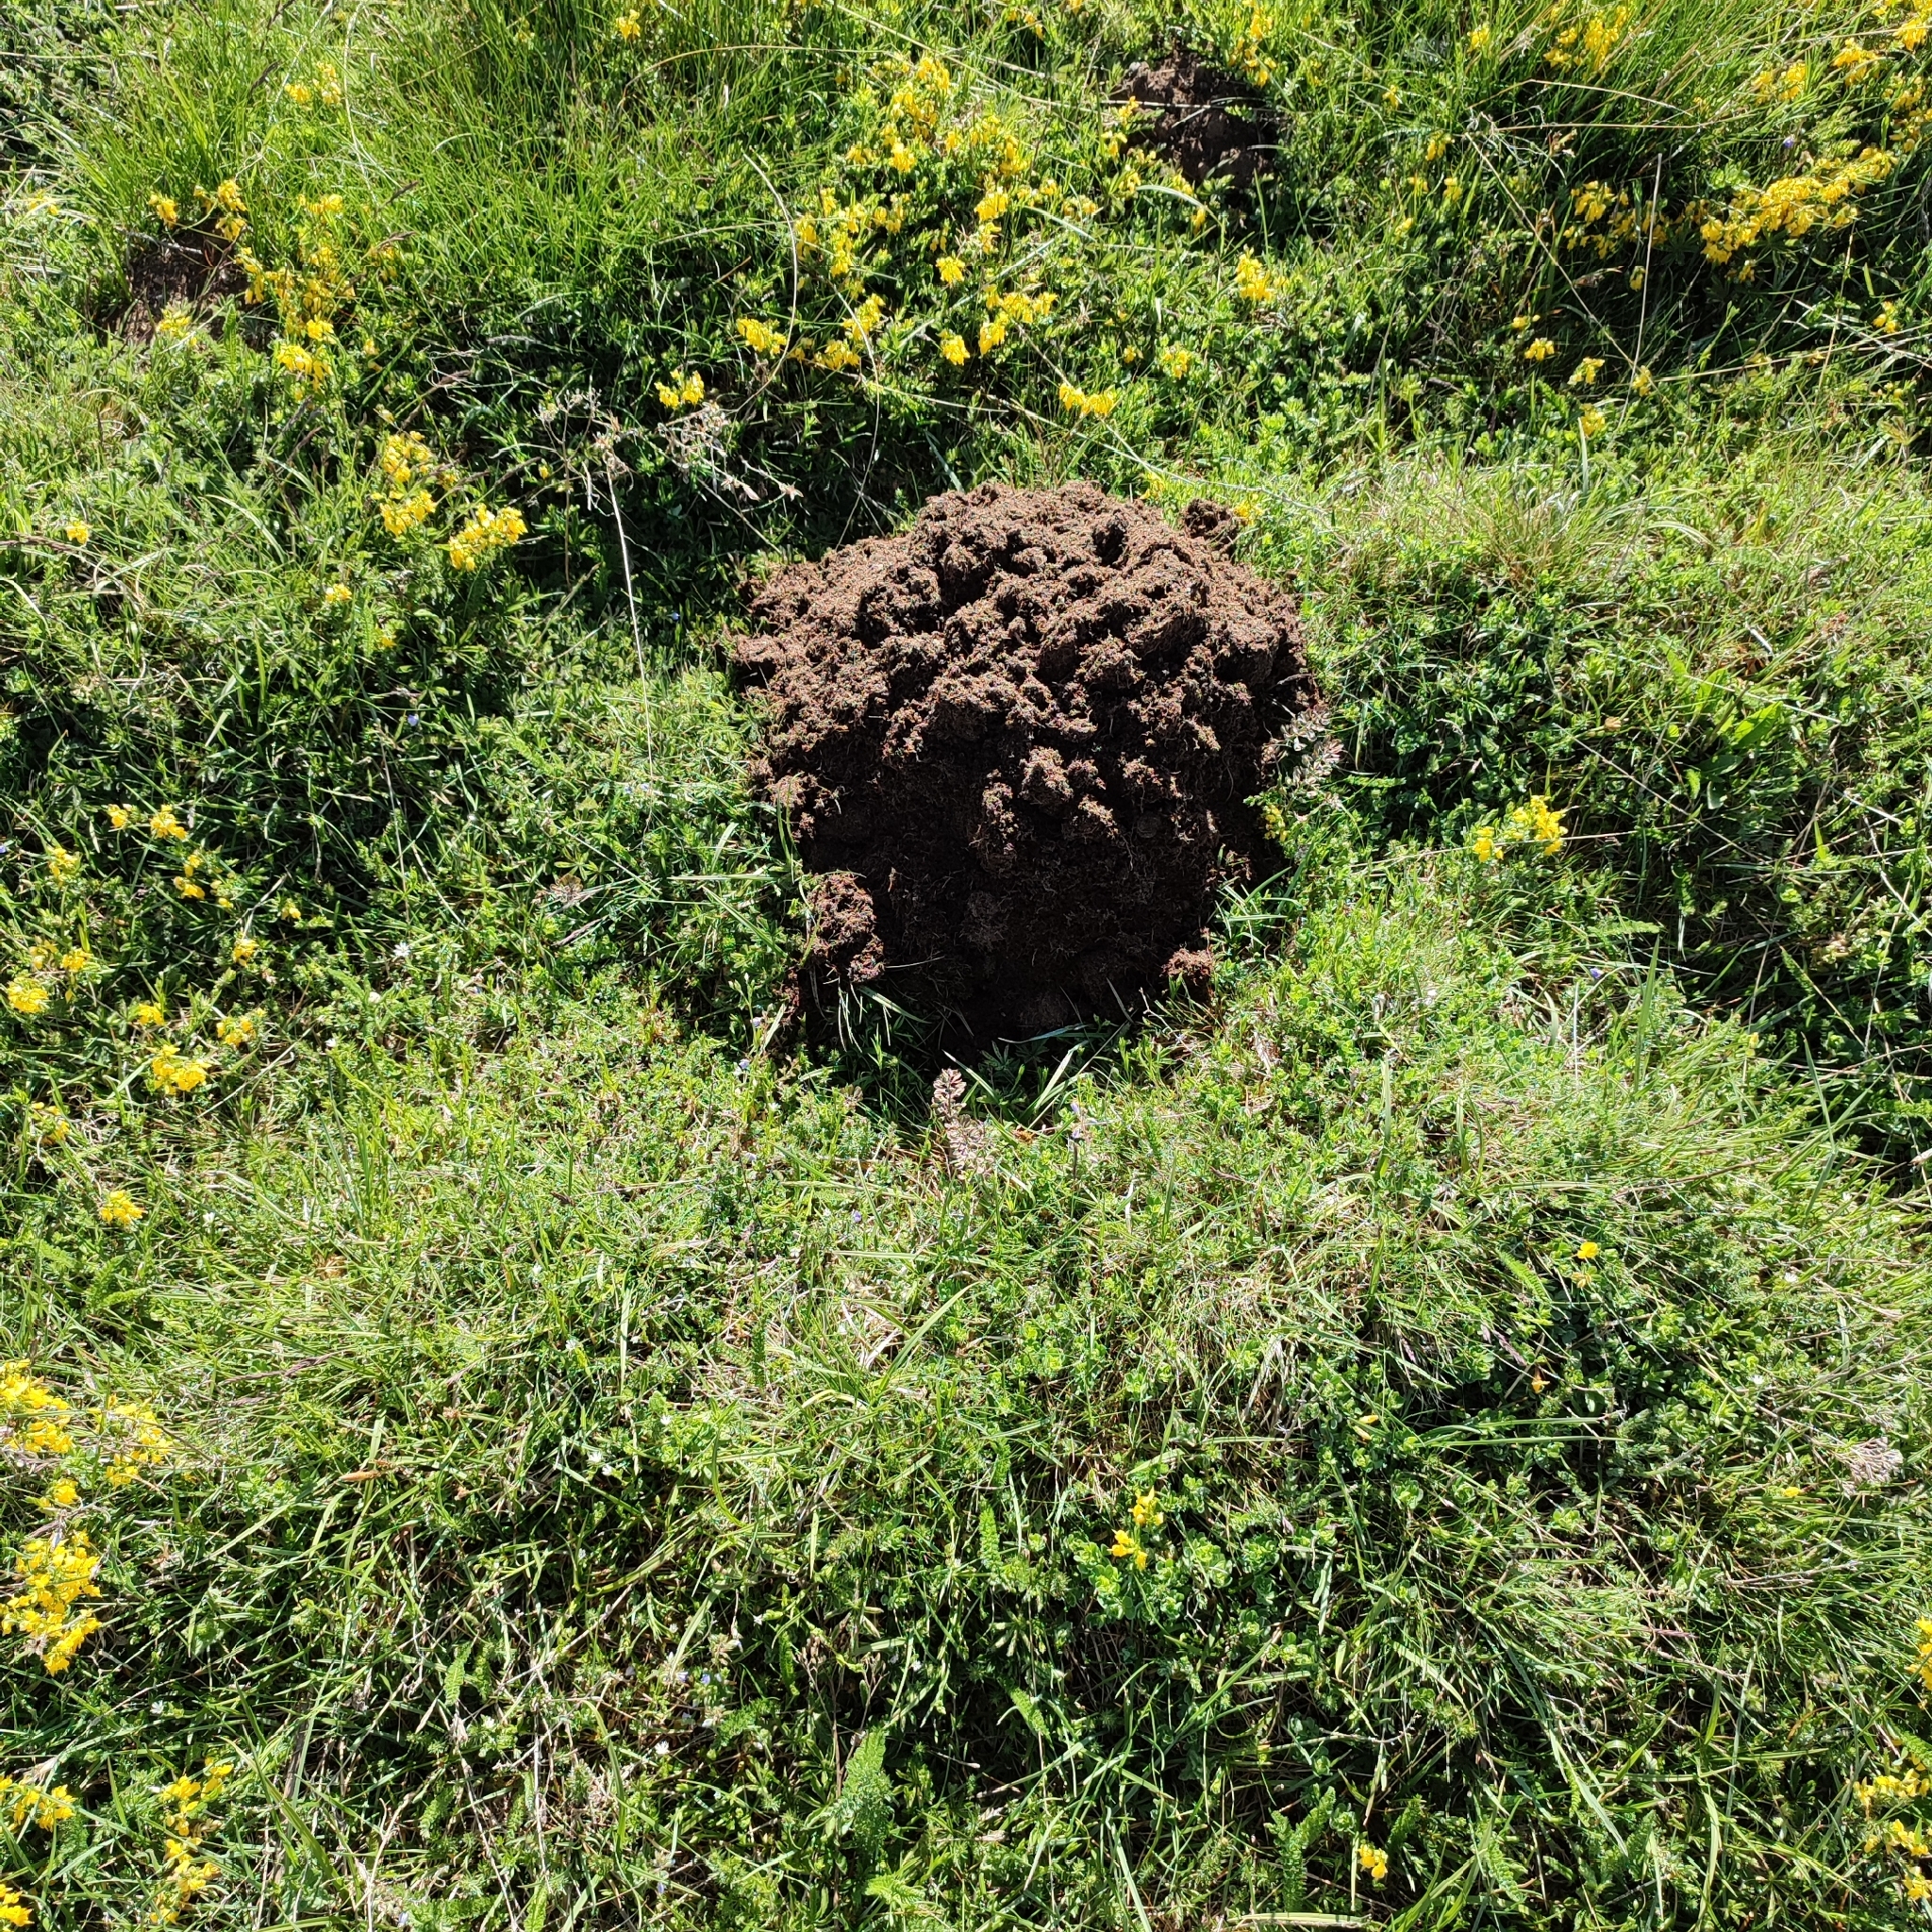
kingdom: Animalia
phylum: Chordata
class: Mammalia
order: Soricomorpha
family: Talpidae
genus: Talpa
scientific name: Talpa aquitania
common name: Aquitanian mole
